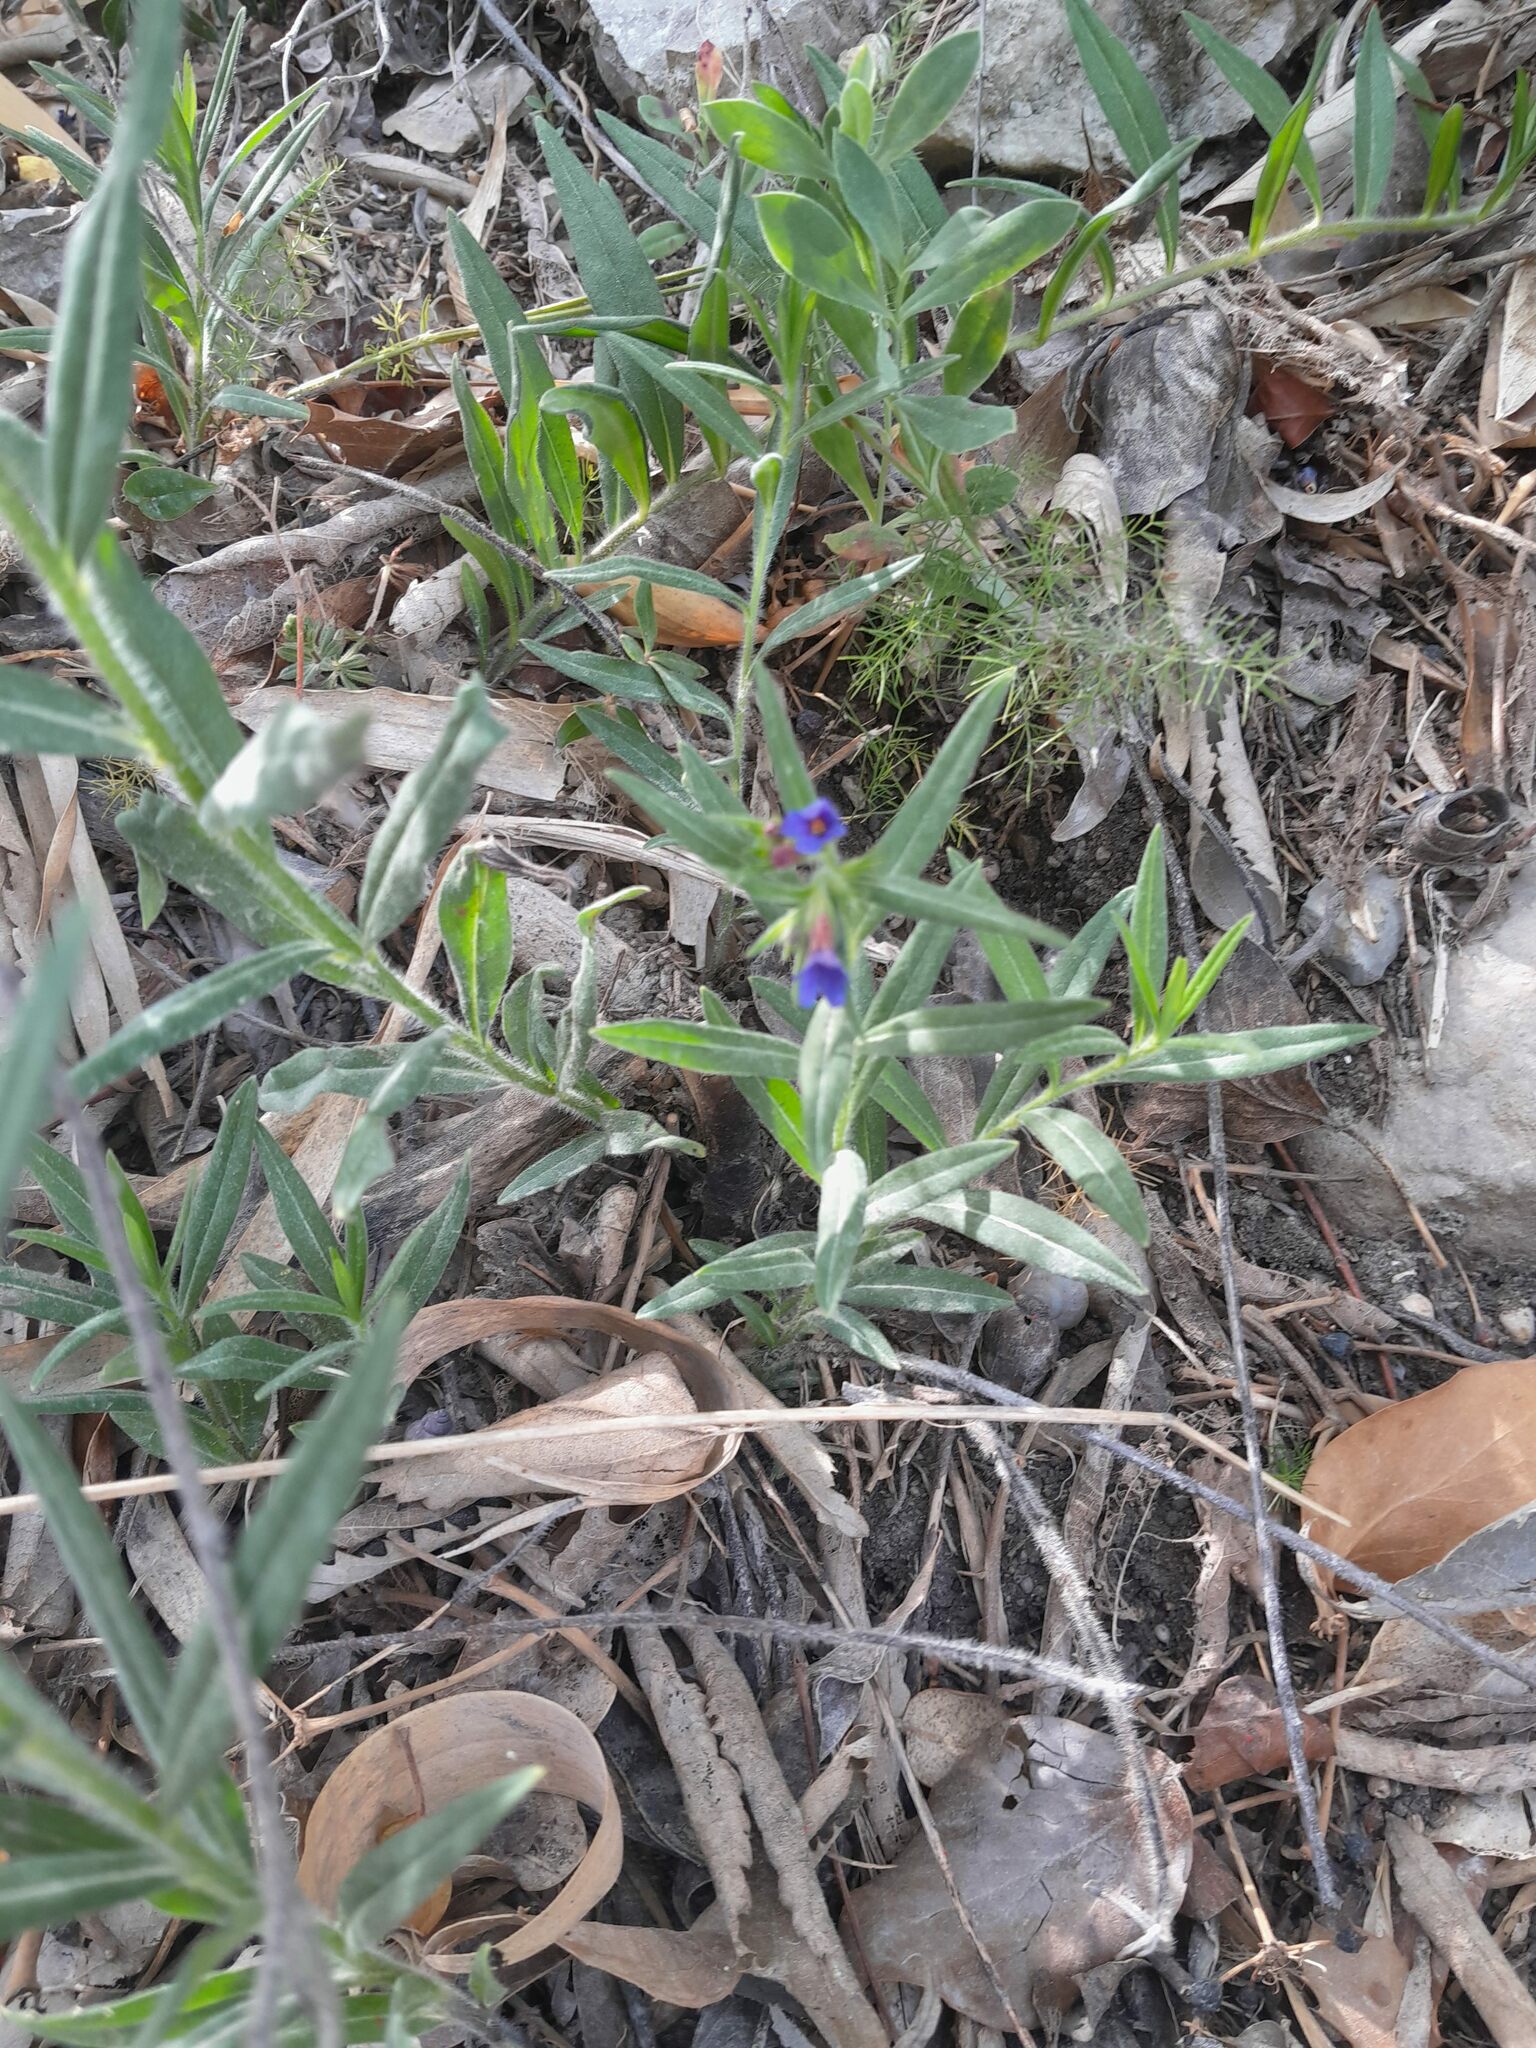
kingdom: Plantae
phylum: Tracheophyta
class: Magnoliopsida
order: Boraginales
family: Boraginaceae
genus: Aegonychon
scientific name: Aegonychon purpurocaeruleum
